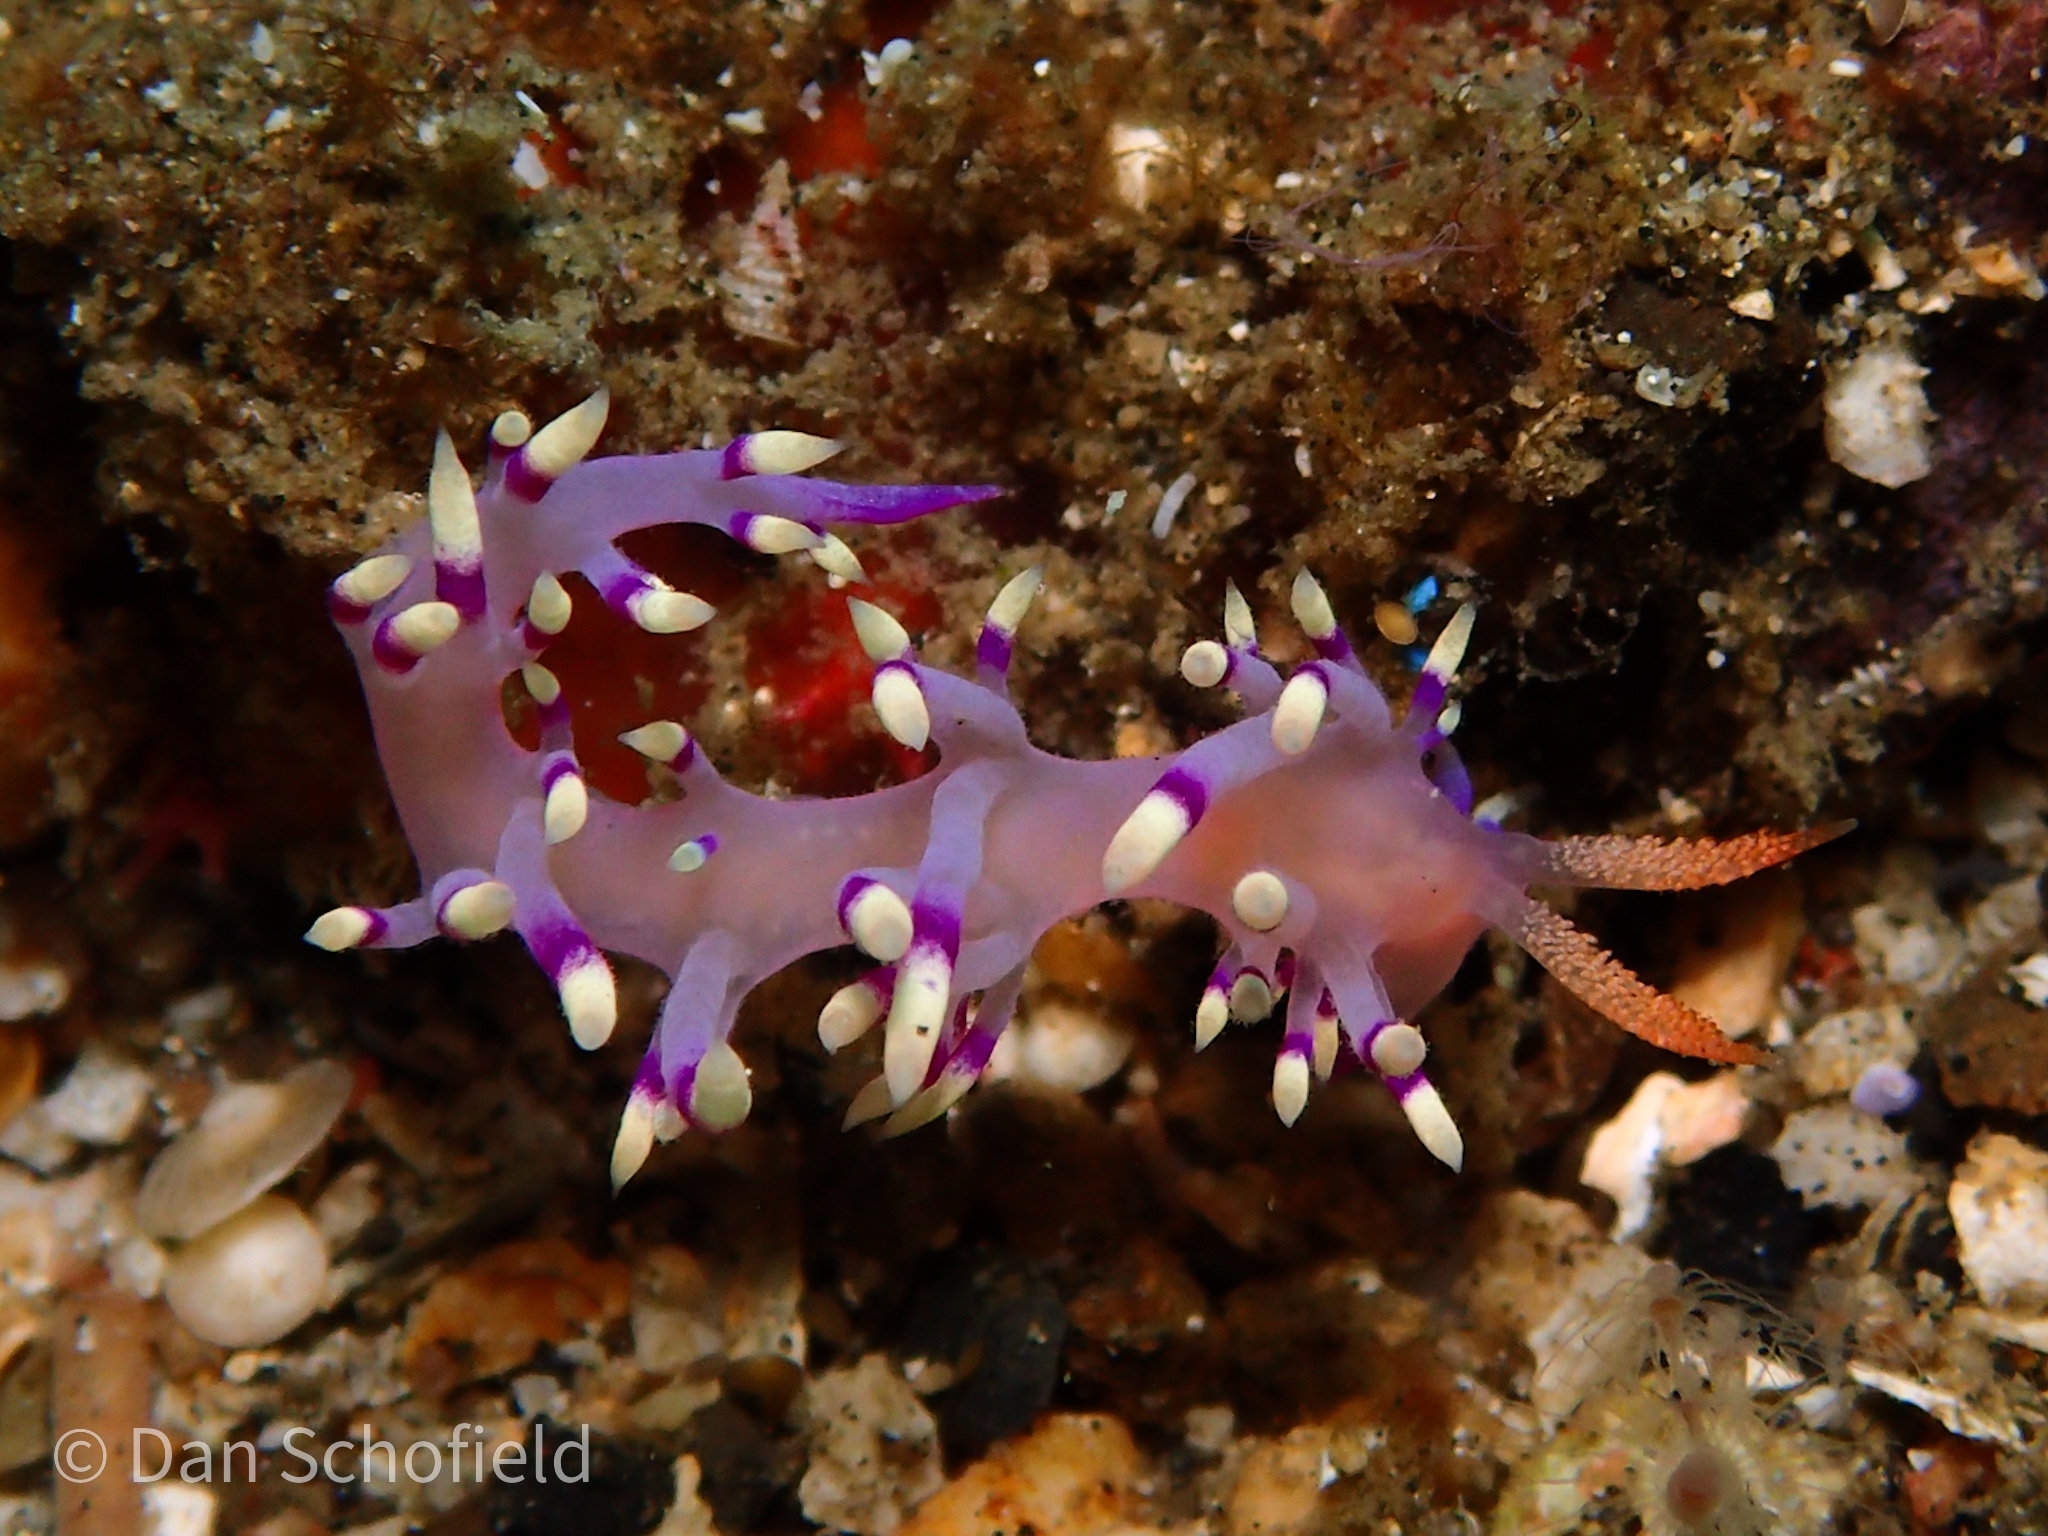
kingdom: Animalia
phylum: Mollusca
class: Gastropoda
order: Nudibranchia
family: Flabellinidae
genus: Coryphellina
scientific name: Coryphellina exoptata
